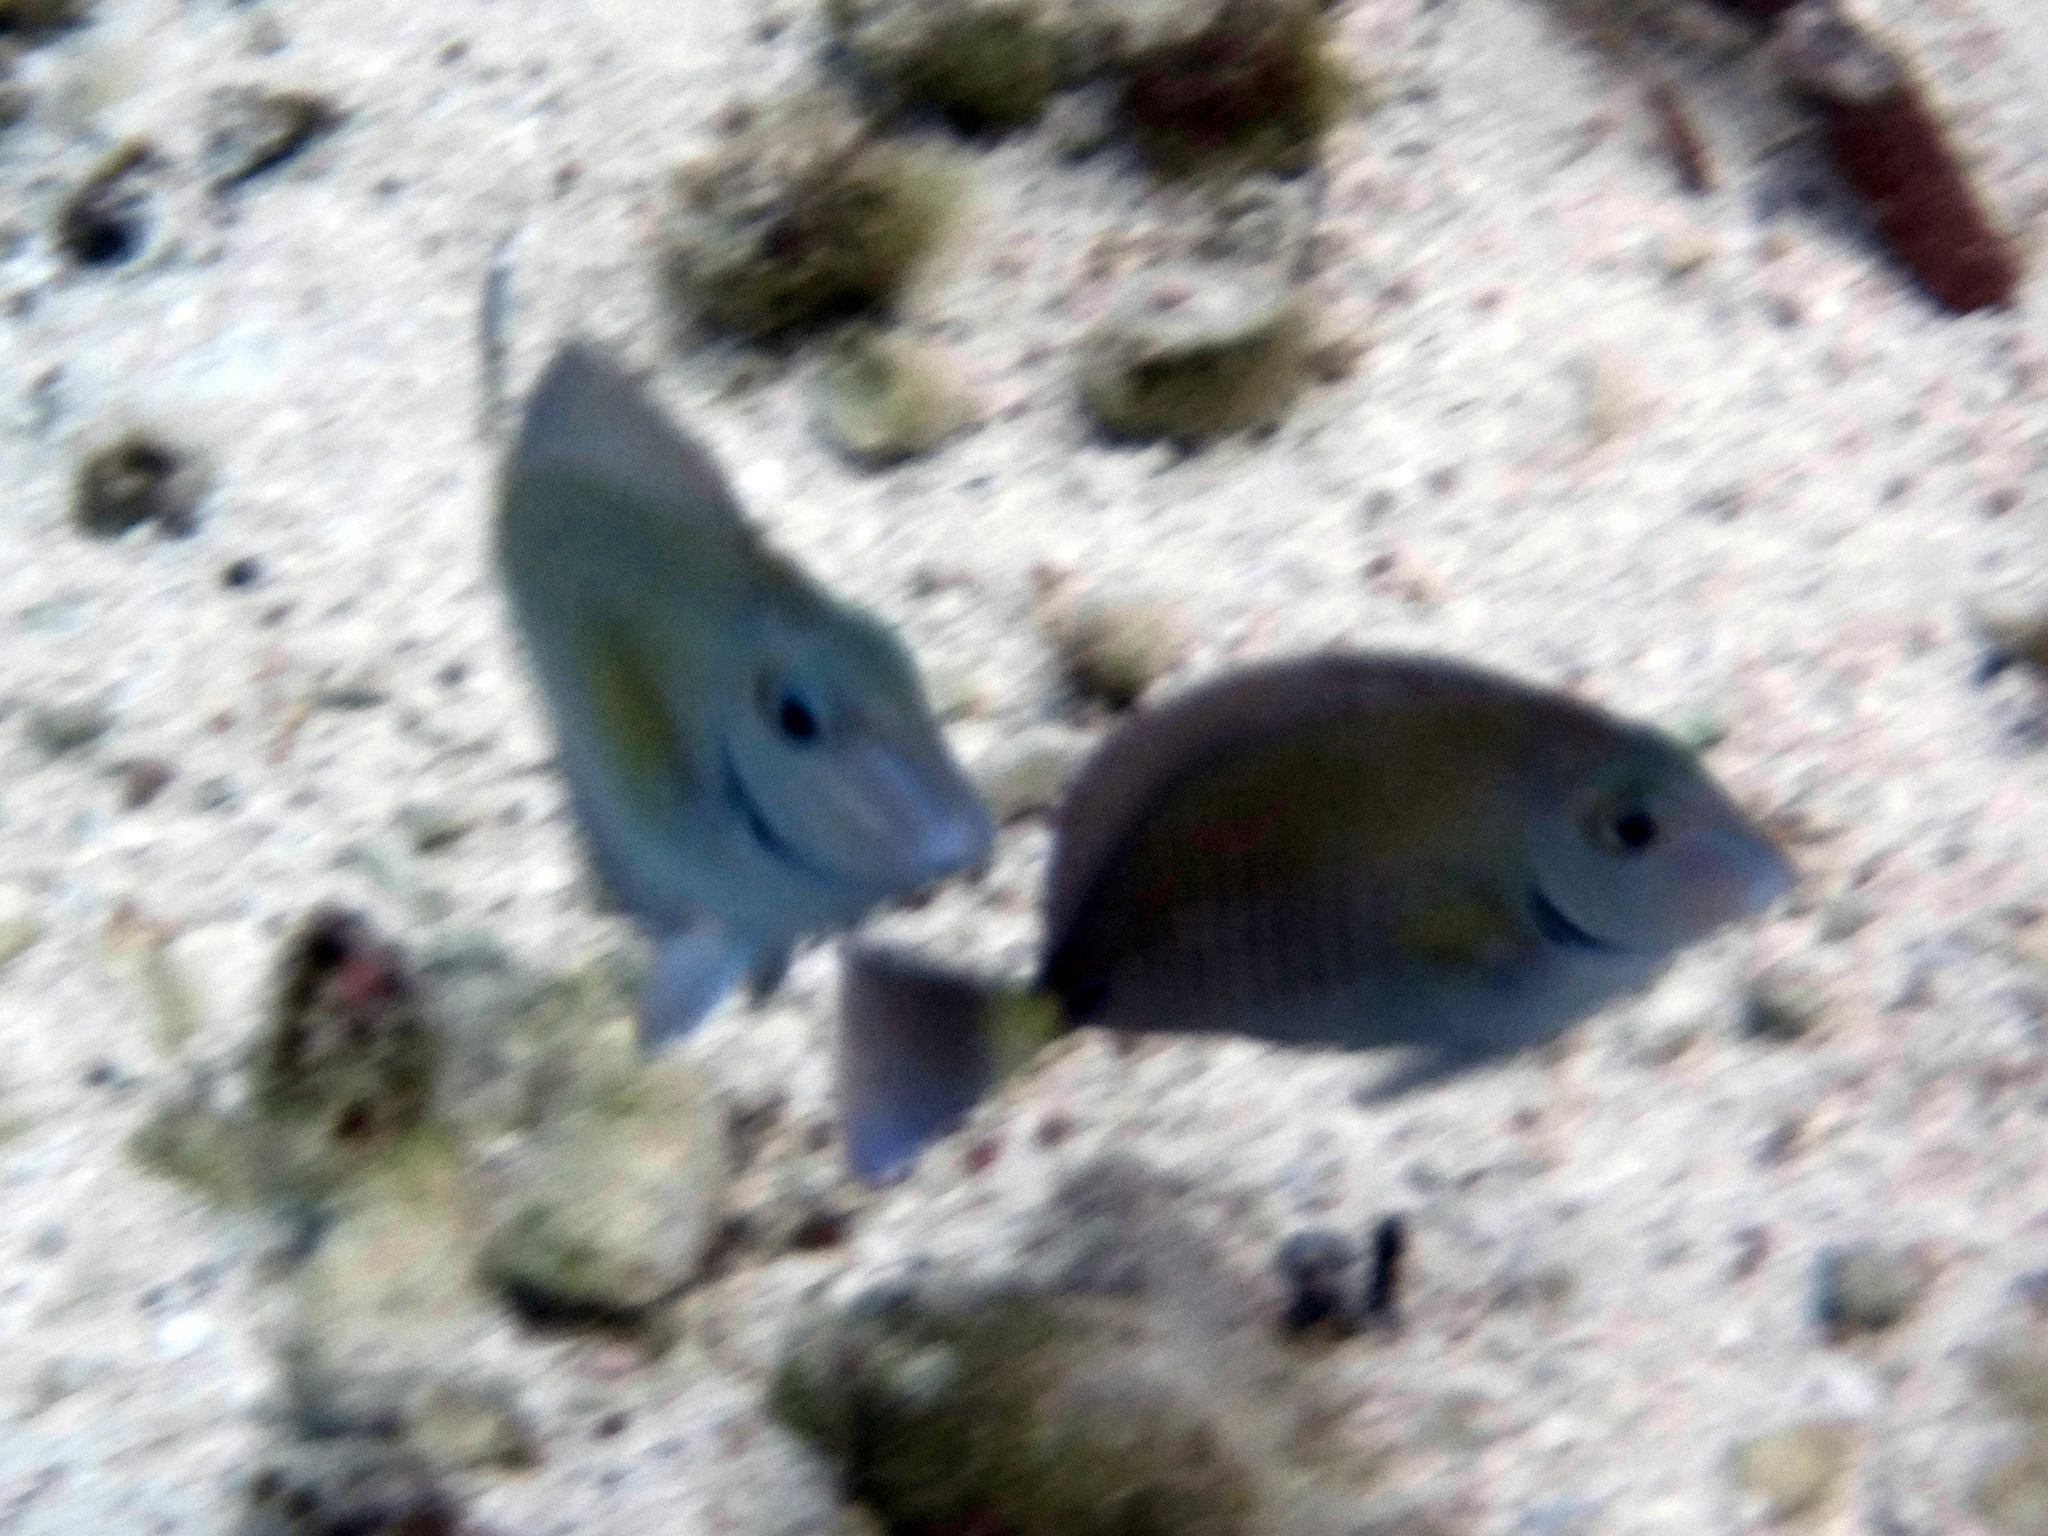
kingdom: Animalia
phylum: Chordata
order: Perciformes
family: Acanthuridae
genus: Acanthurus
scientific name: Acanthurus chirurgus
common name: Doctorfish
